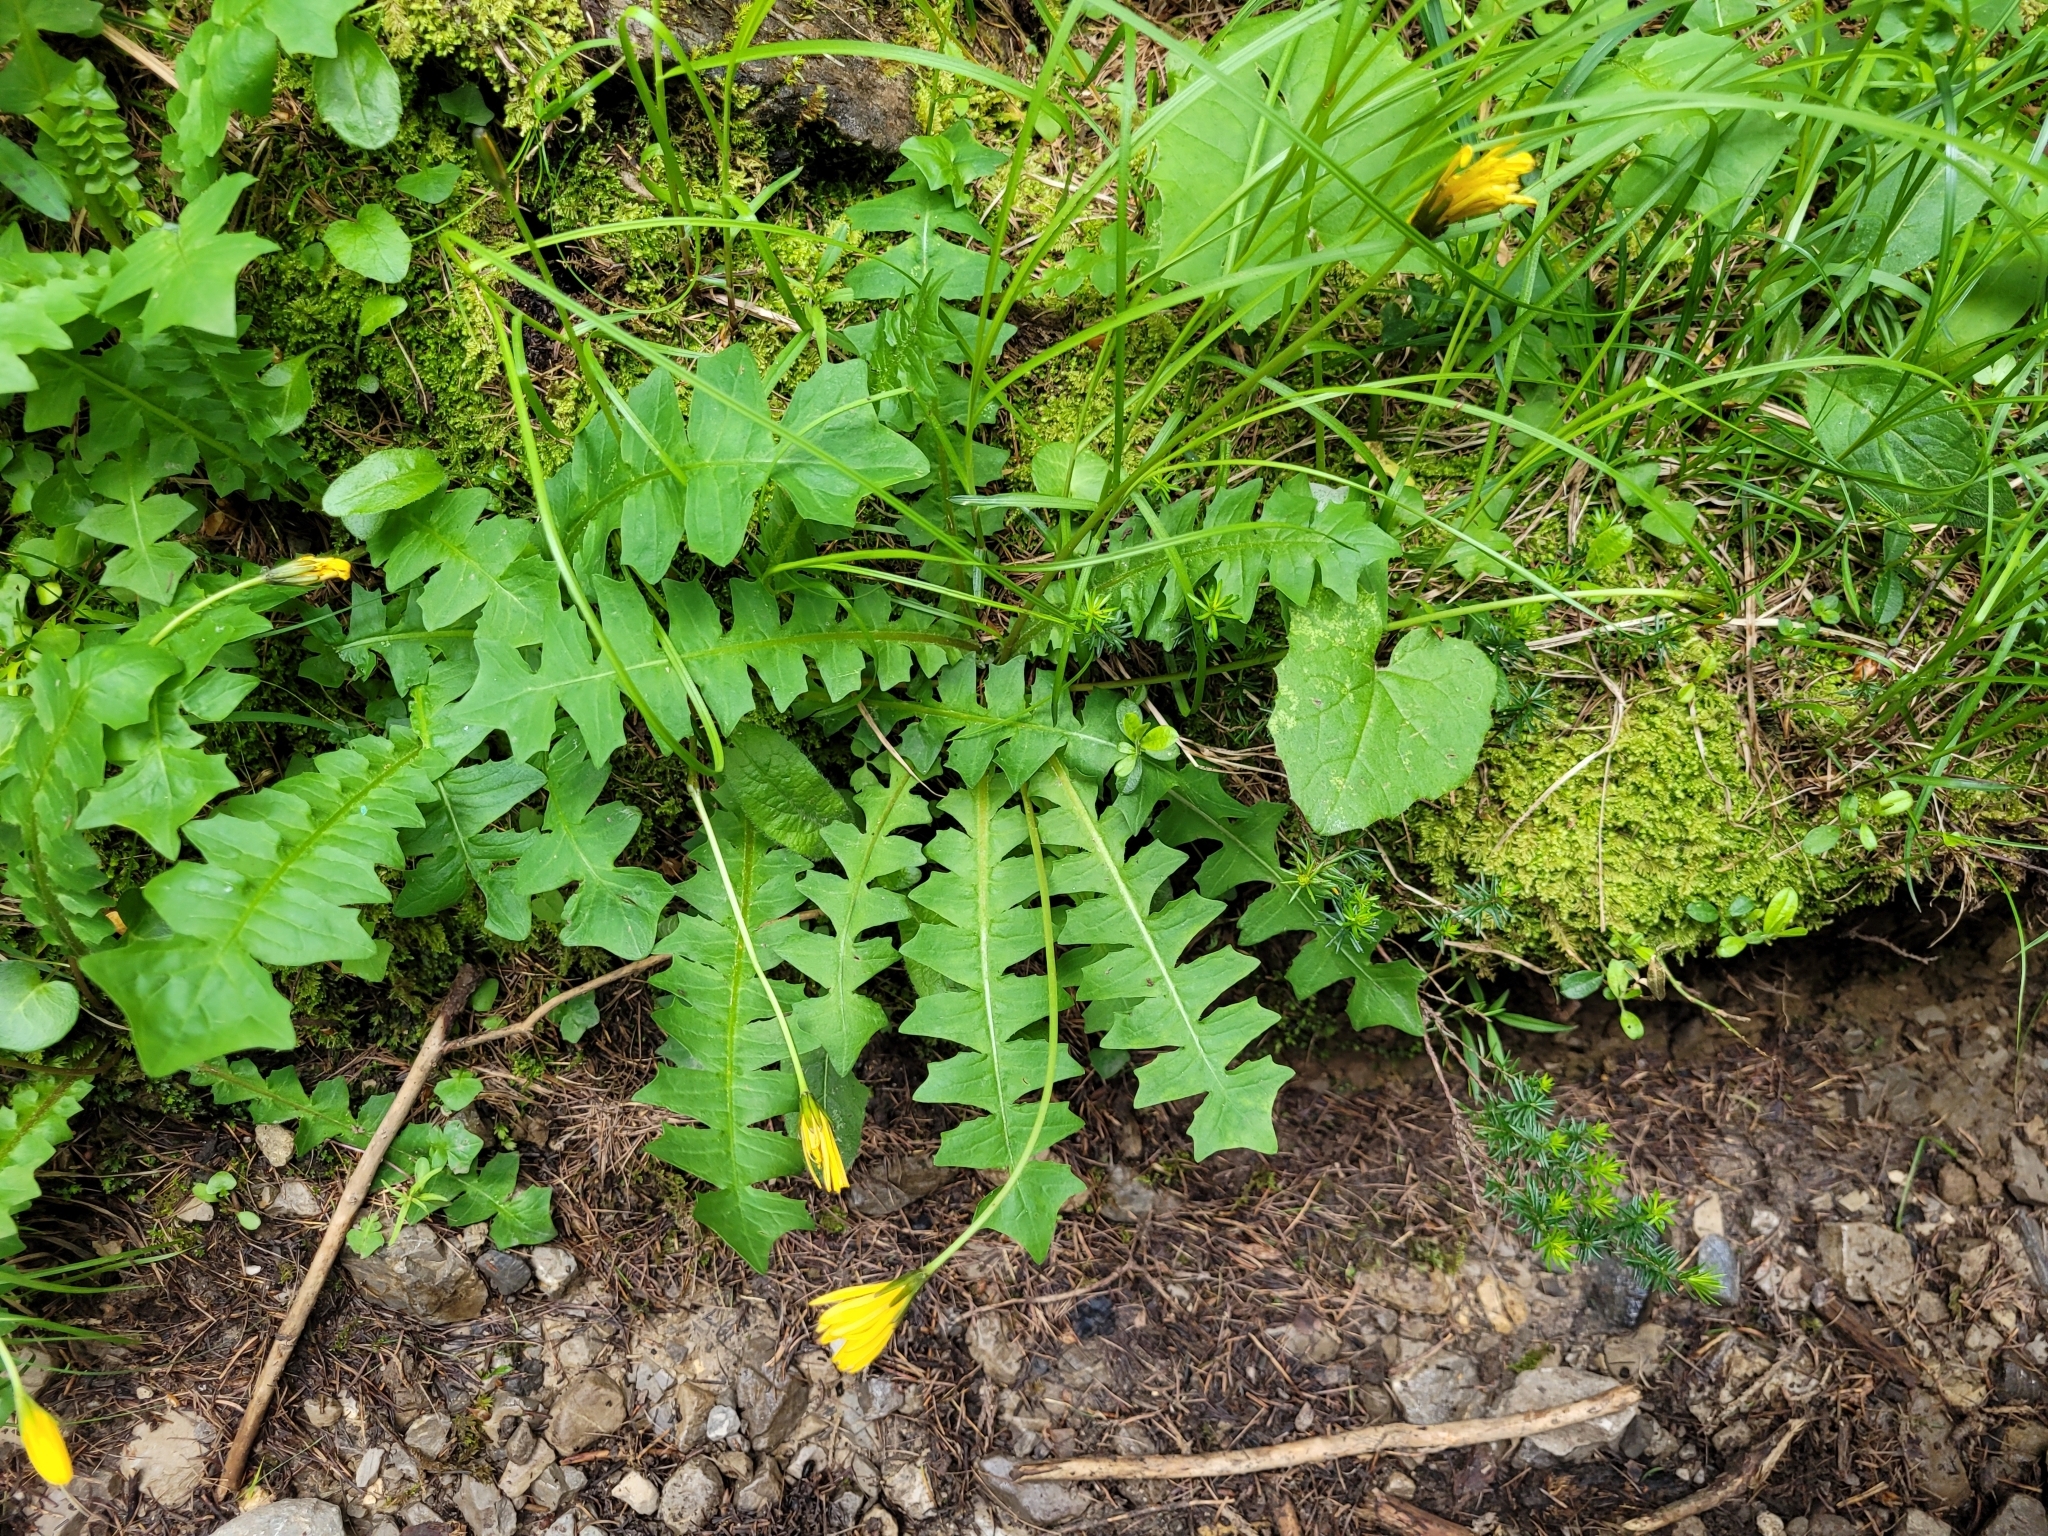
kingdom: Plantae
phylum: Tracheophyta
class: Magnoliopsida
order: Asterales
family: Asteraceae
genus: Aposeris
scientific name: Aposeris foetida
